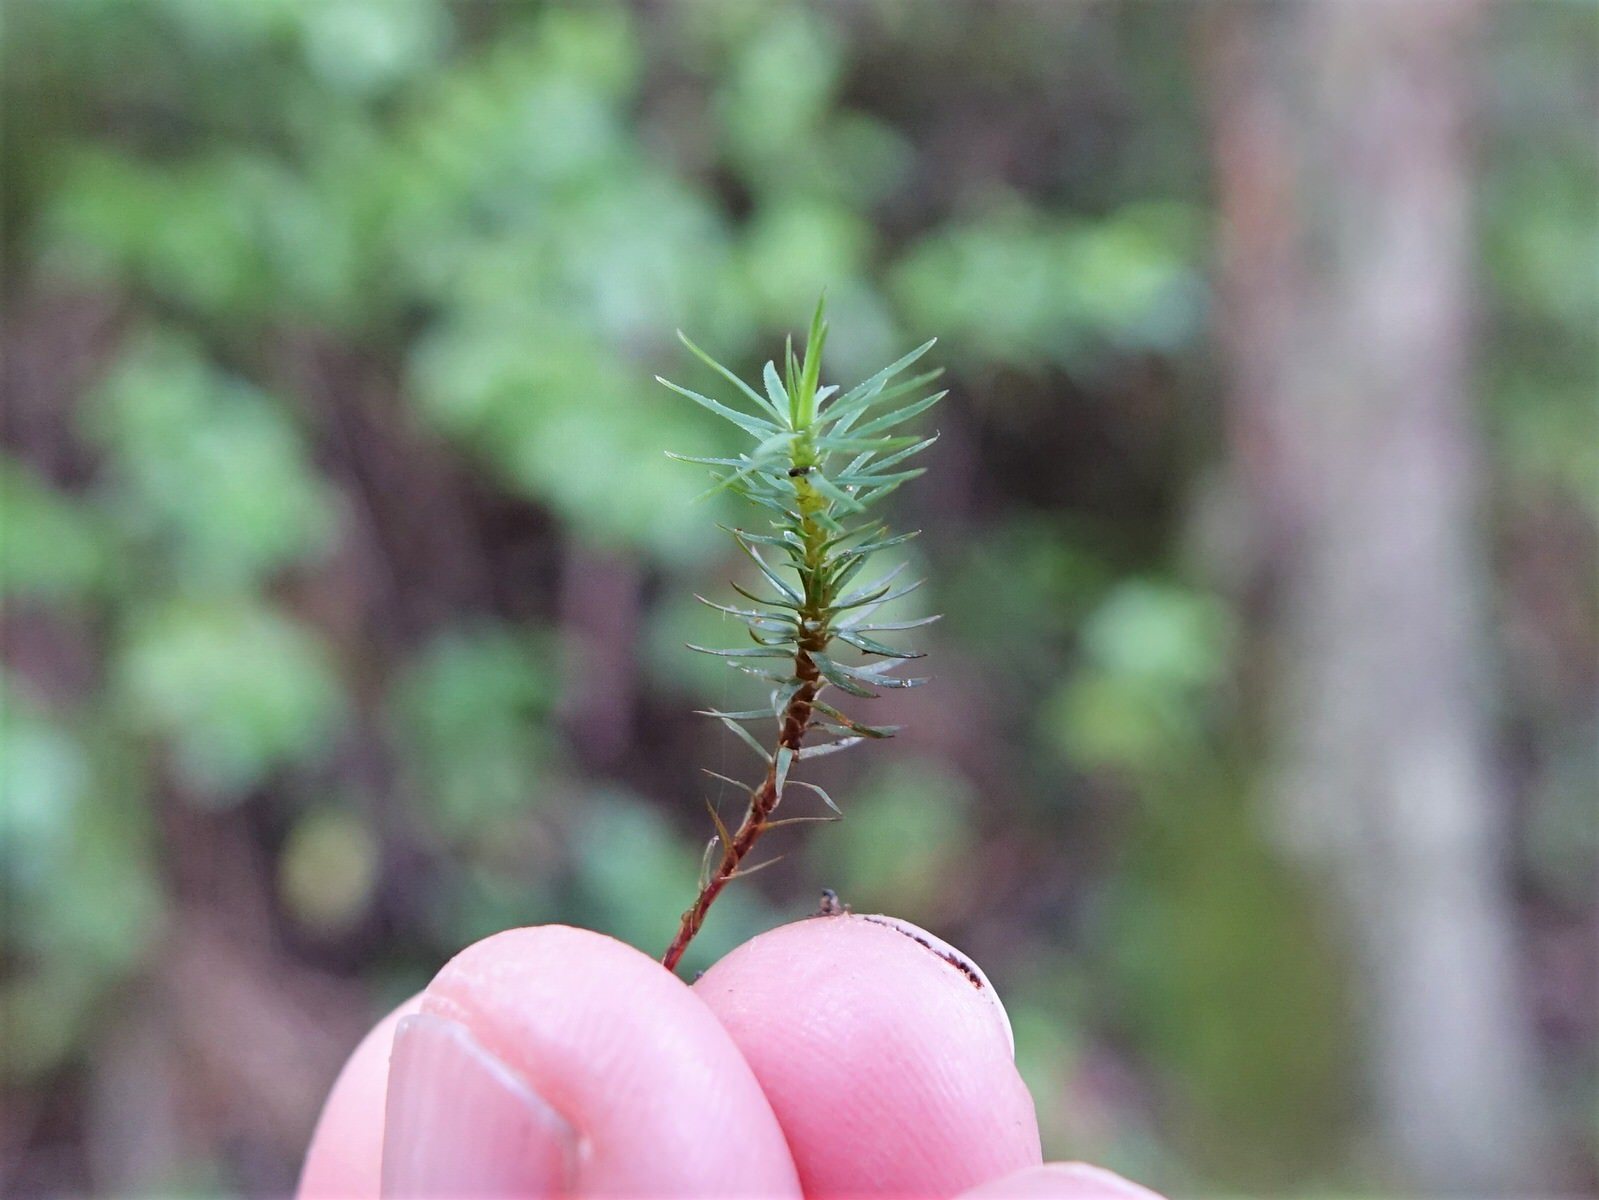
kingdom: Plantae
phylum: Bryophyta
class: Polytrichopsida
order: Polytrichales
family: Polytrichaceae
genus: Polytrichadelphus
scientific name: Polytrichadelphus magellanicus
